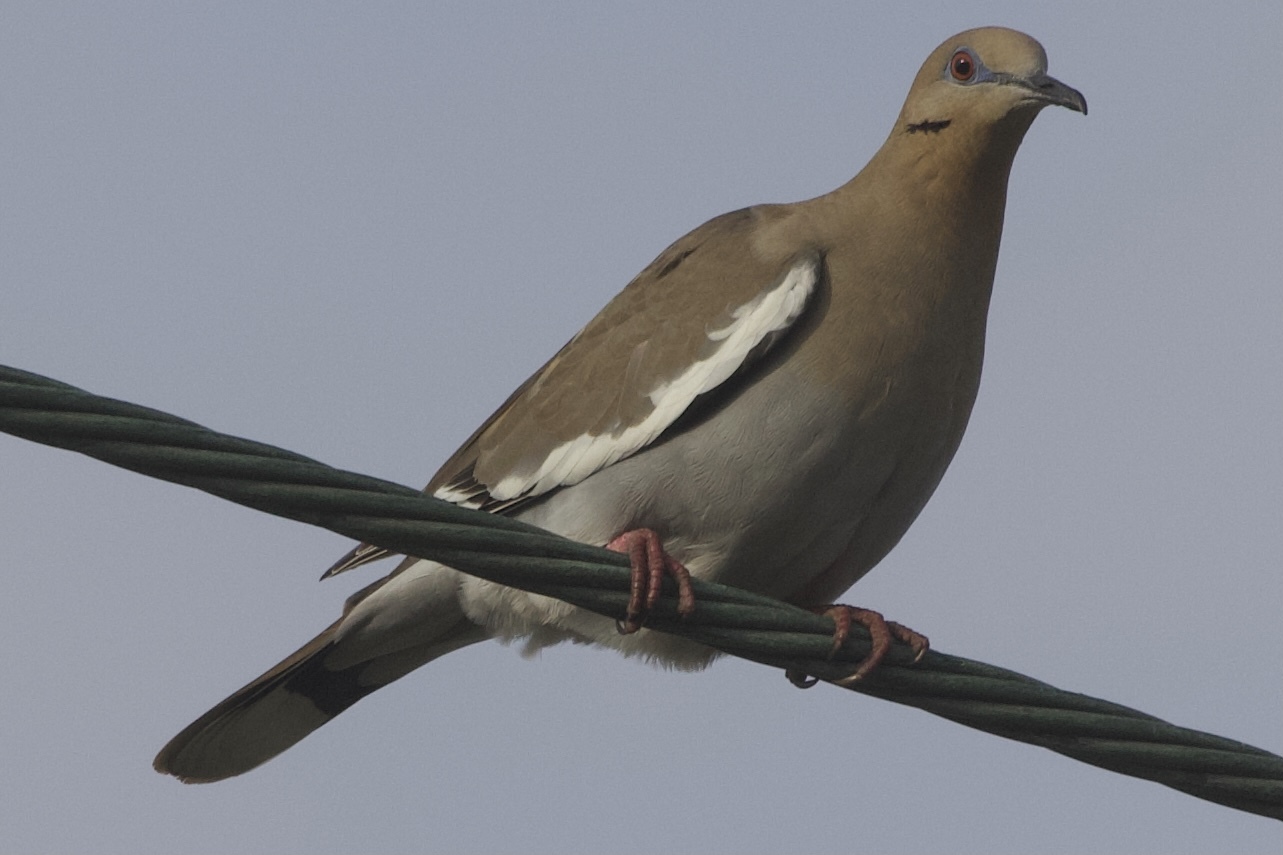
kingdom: Animalia
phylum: Chordata
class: Aves
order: Columbiformes
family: Columbidae
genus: Zenaida
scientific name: Zenaida asiatica
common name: White-winged dove
